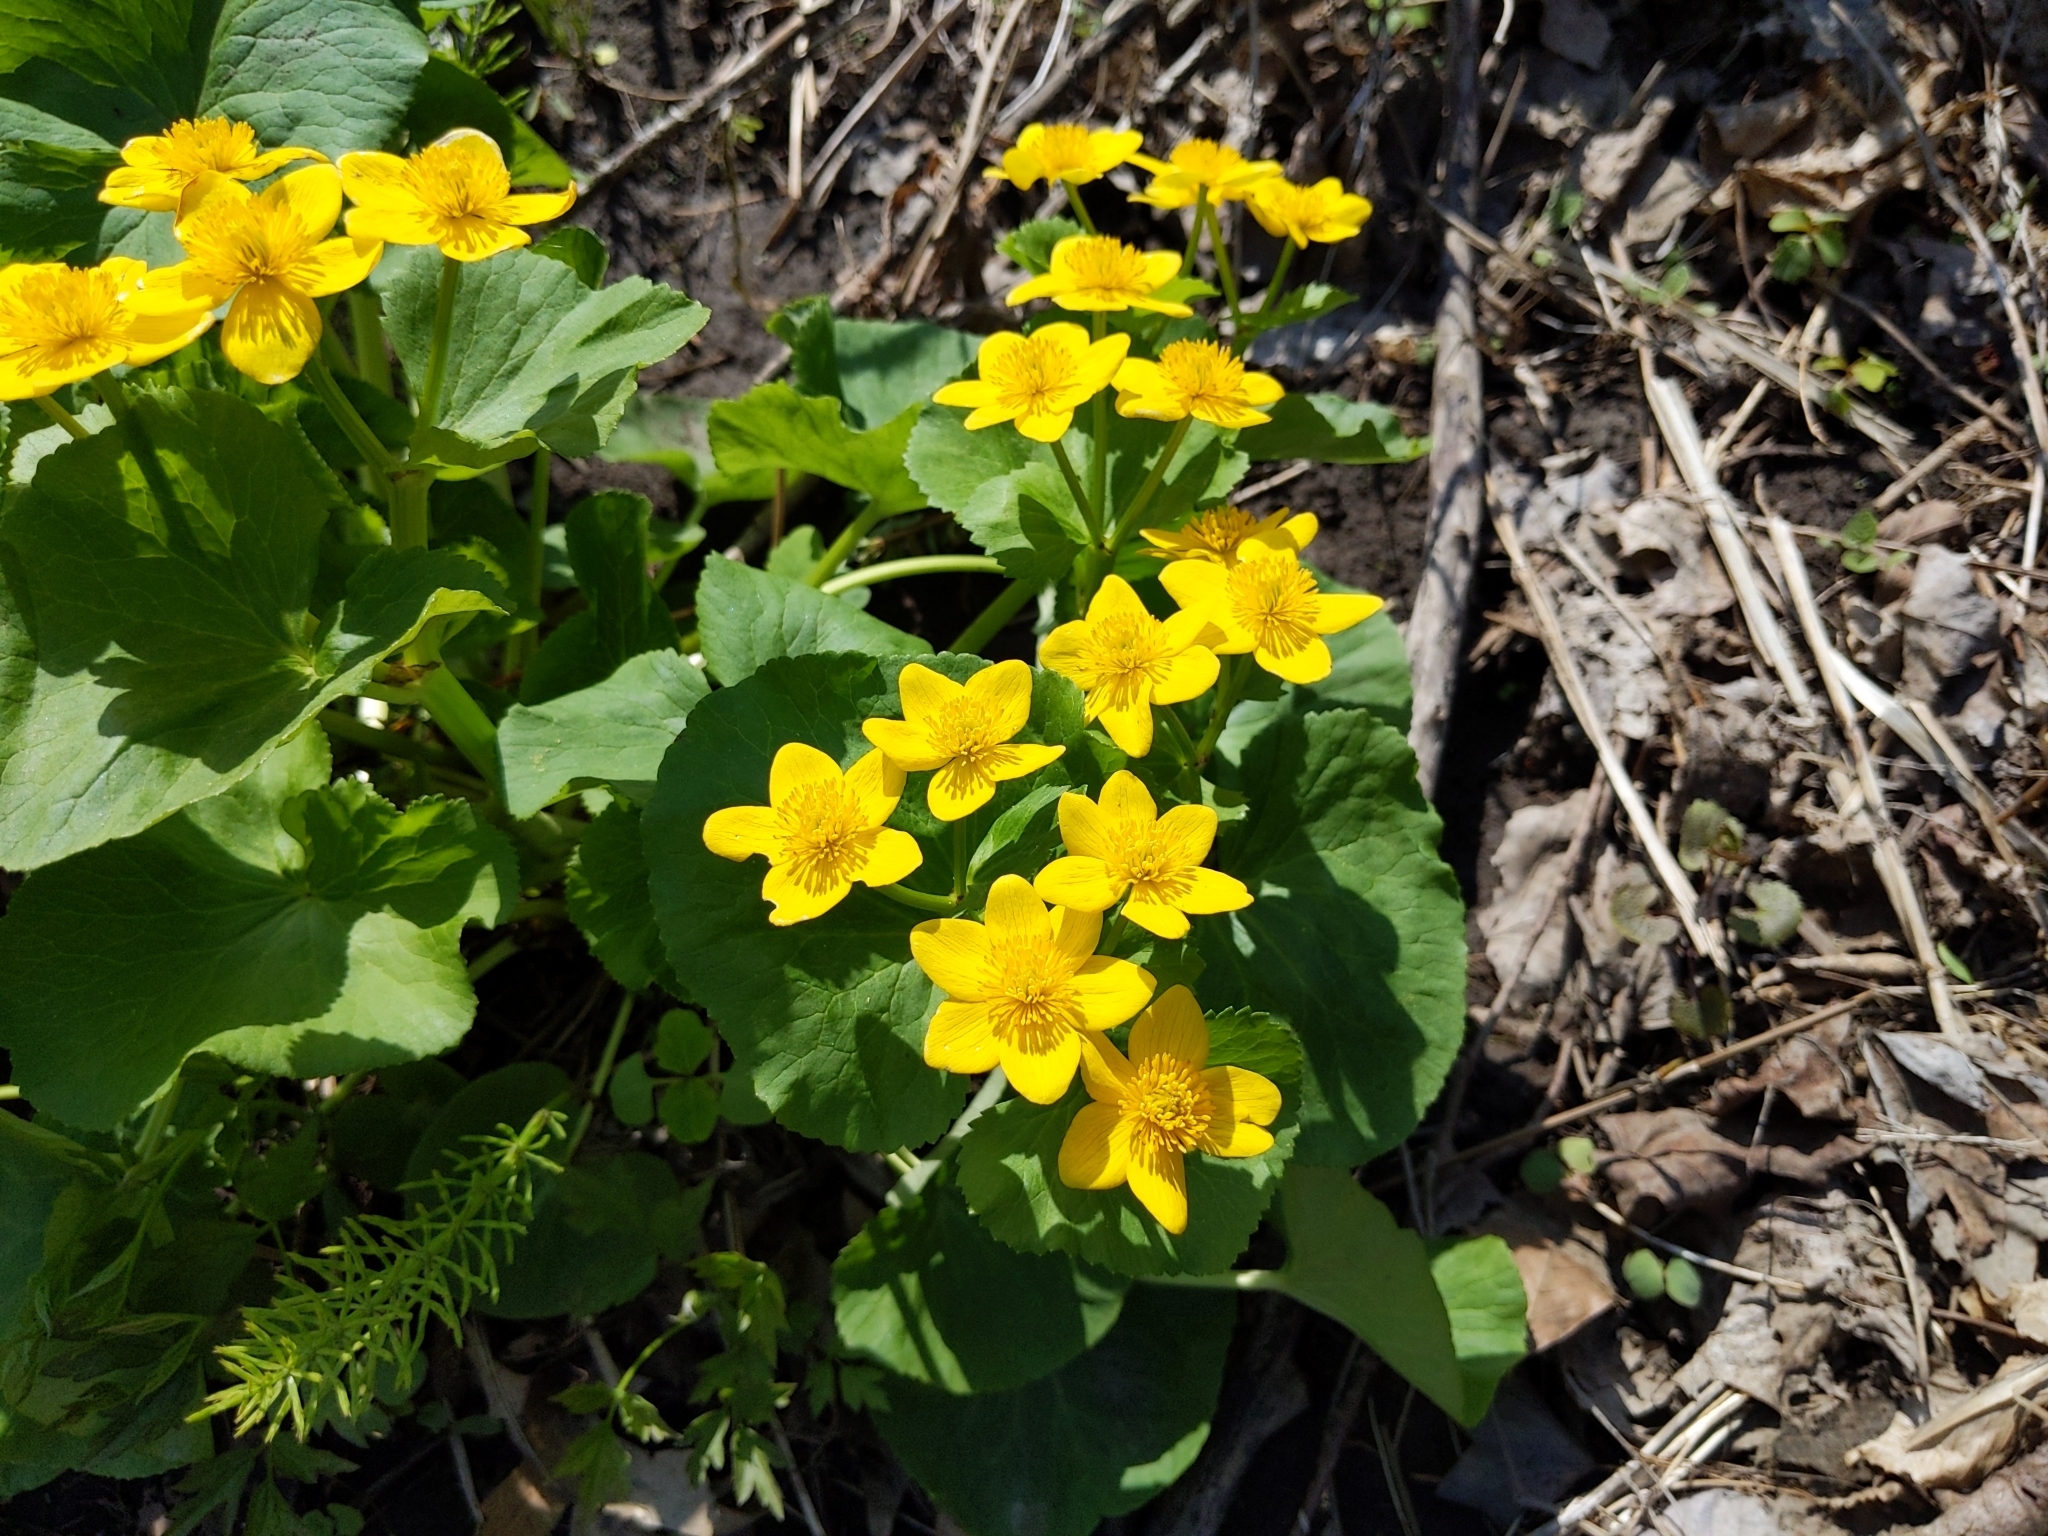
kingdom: Plantae
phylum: Tracheophyta
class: Magnoliopsida
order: Ranunculales
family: Ranunculaceae
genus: Caltha
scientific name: Caltha palustris
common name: Marsh marigold
